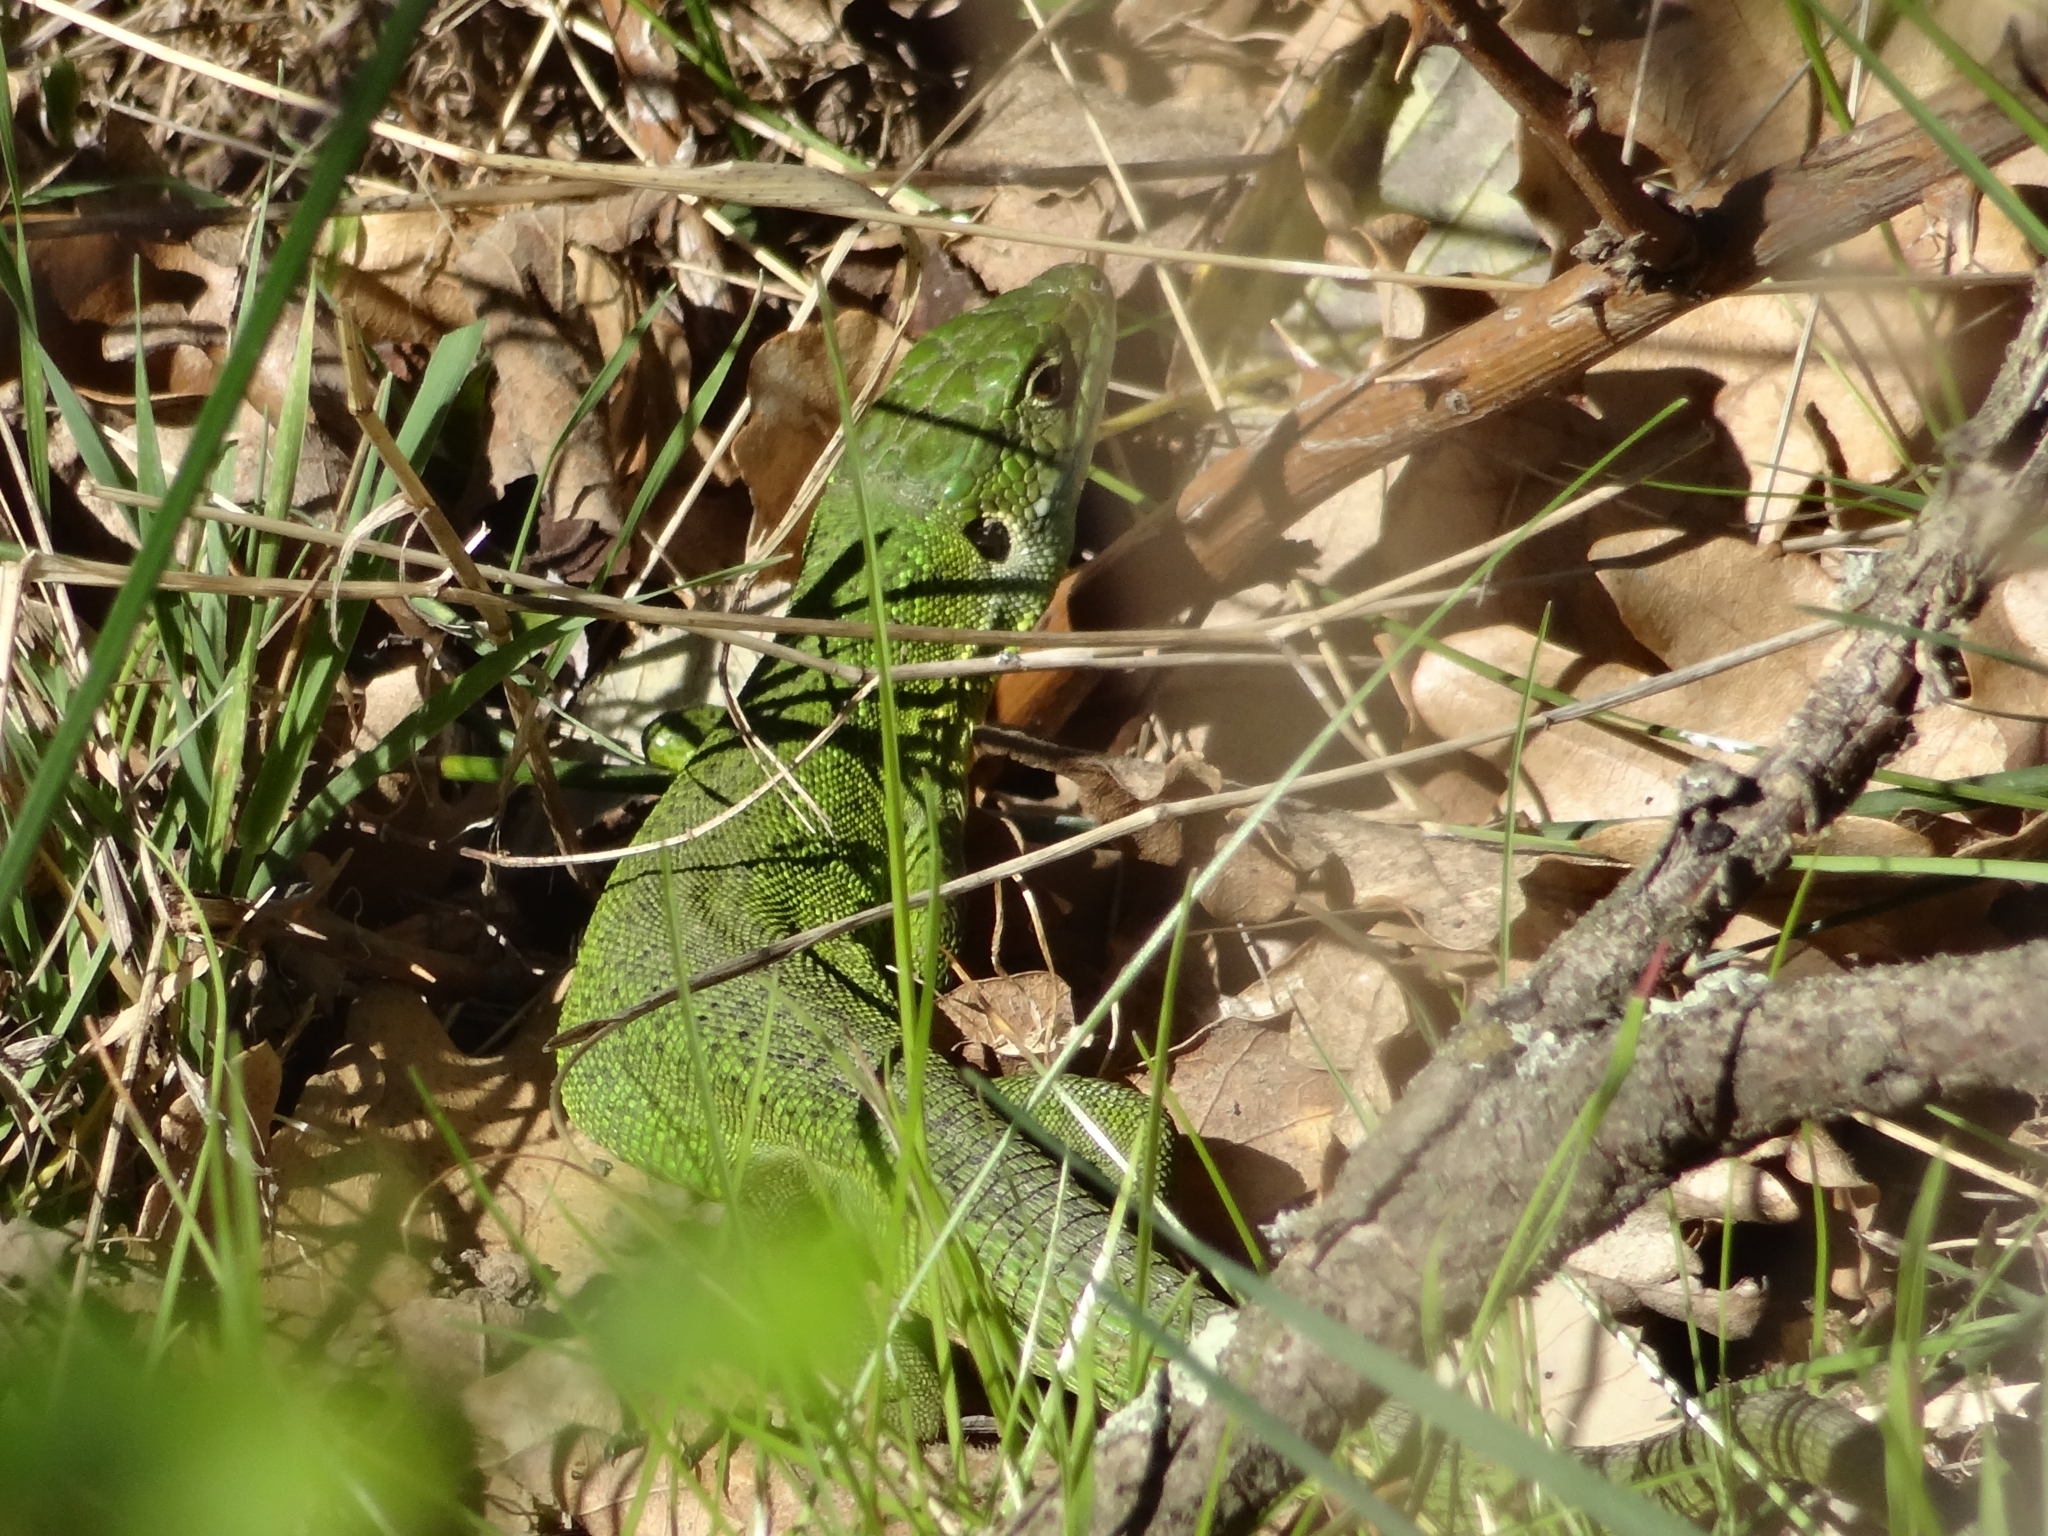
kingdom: Animalia
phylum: Chordata
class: Squamata
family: Lacertidae
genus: Lacerta
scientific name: Lacerta bilineata
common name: Western green lizard
